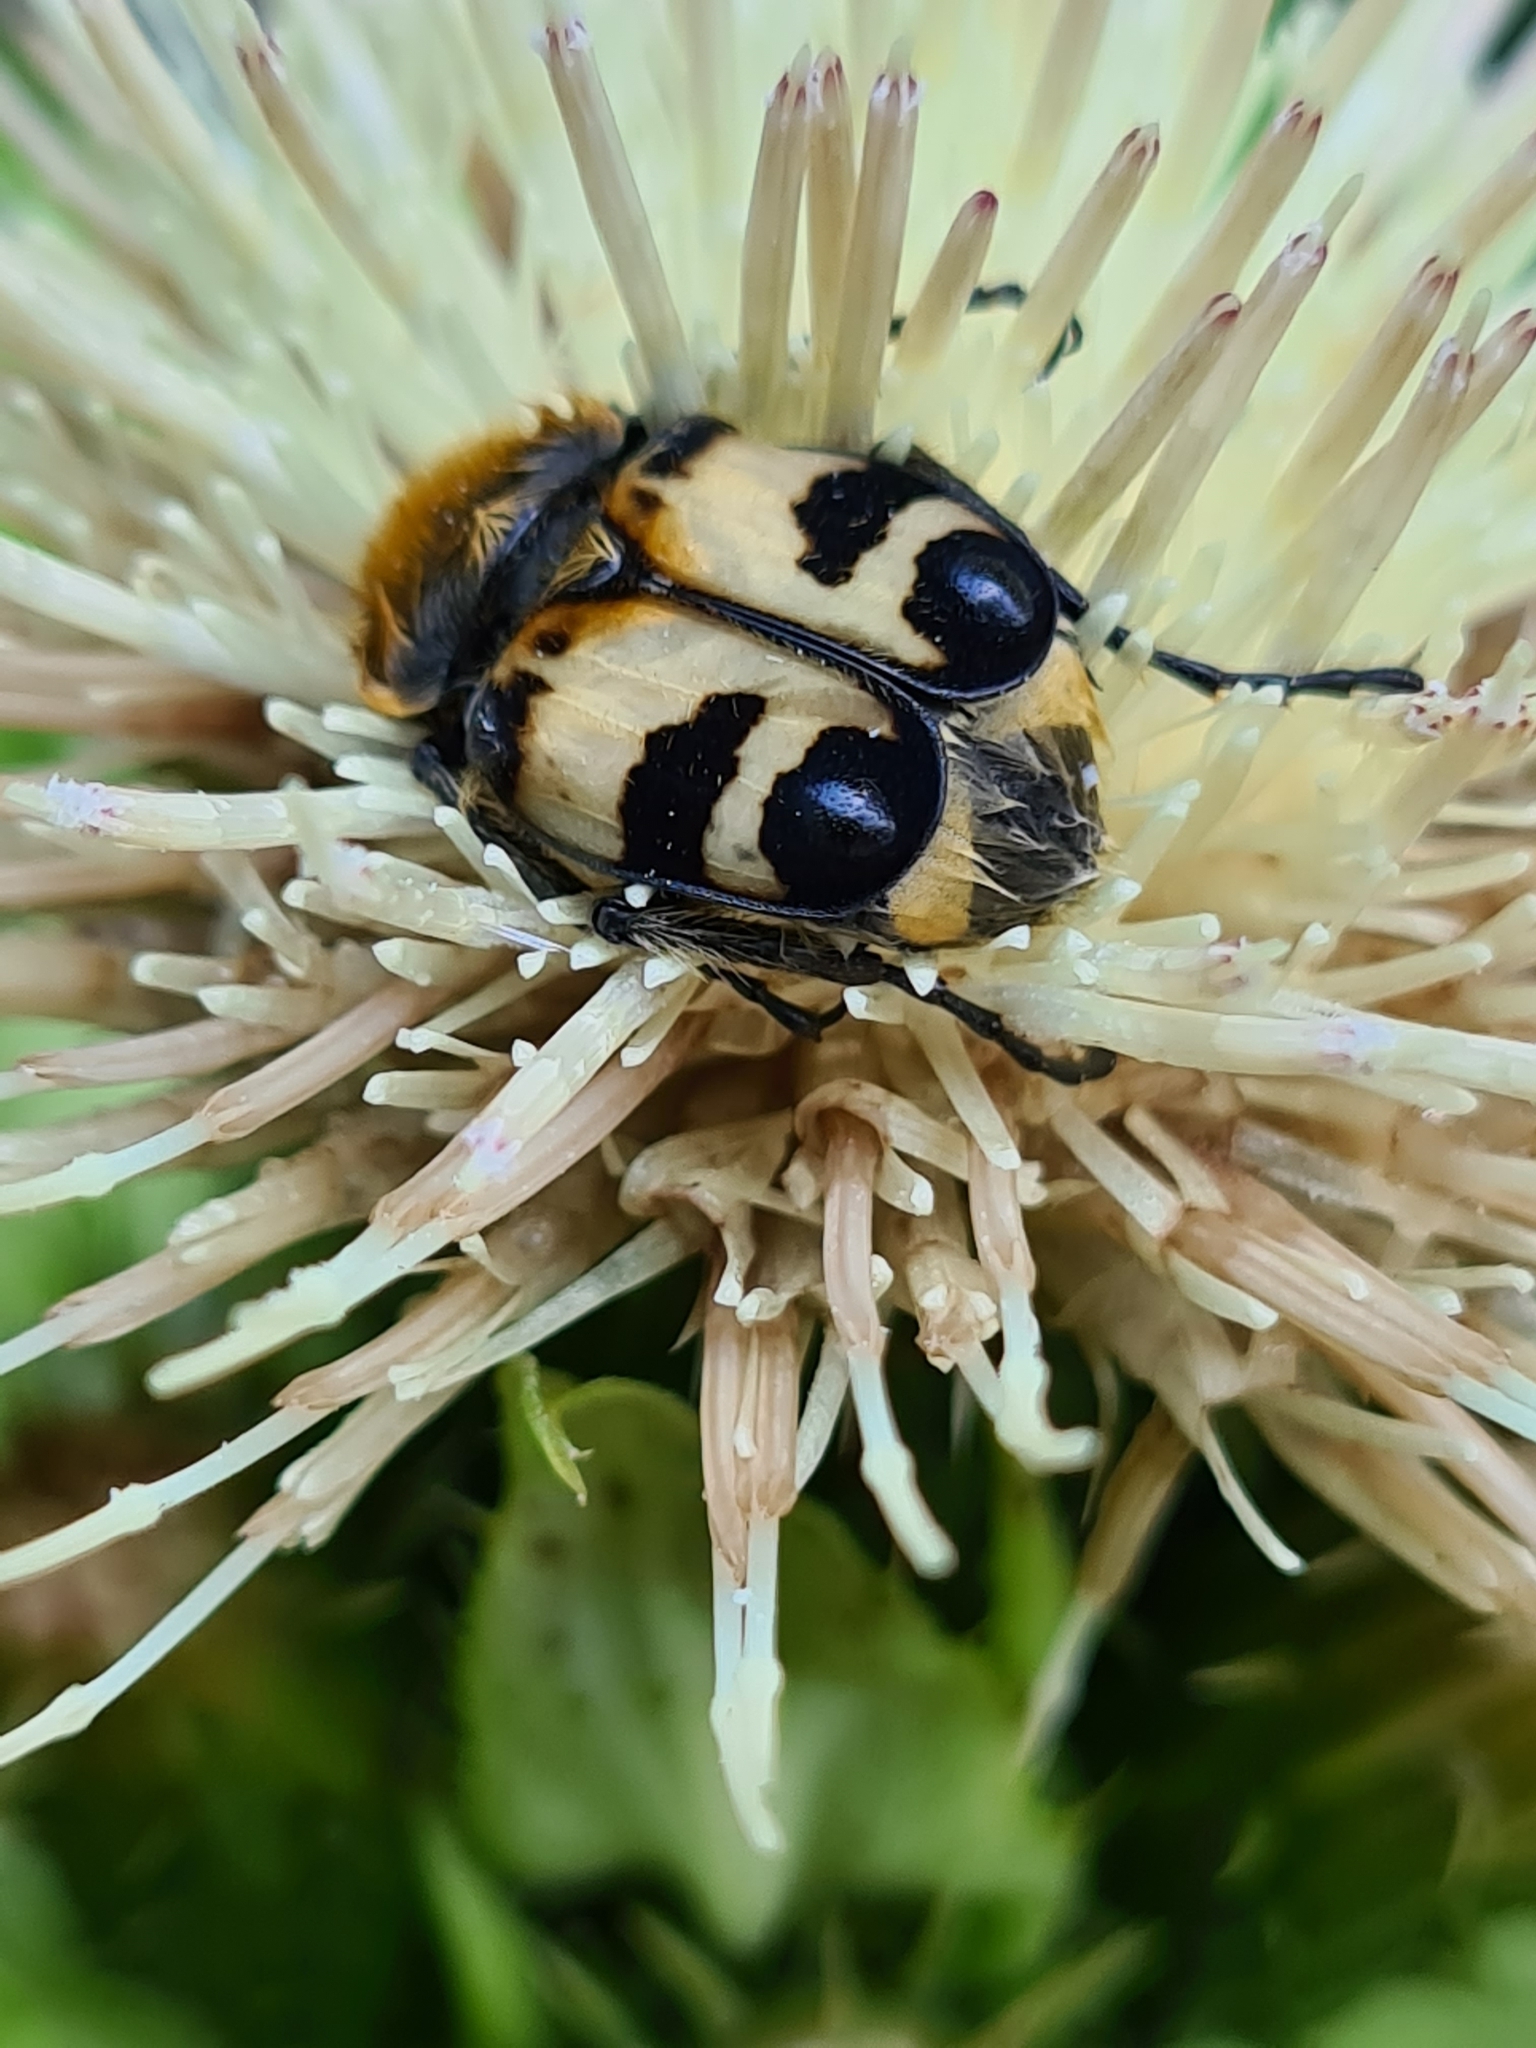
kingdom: Animalia
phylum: Arthropoda
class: Insecta
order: Coleoptera
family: Scarabaeidae
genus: Trichius
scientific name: Trichius fasciatus
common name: Bee beetle
